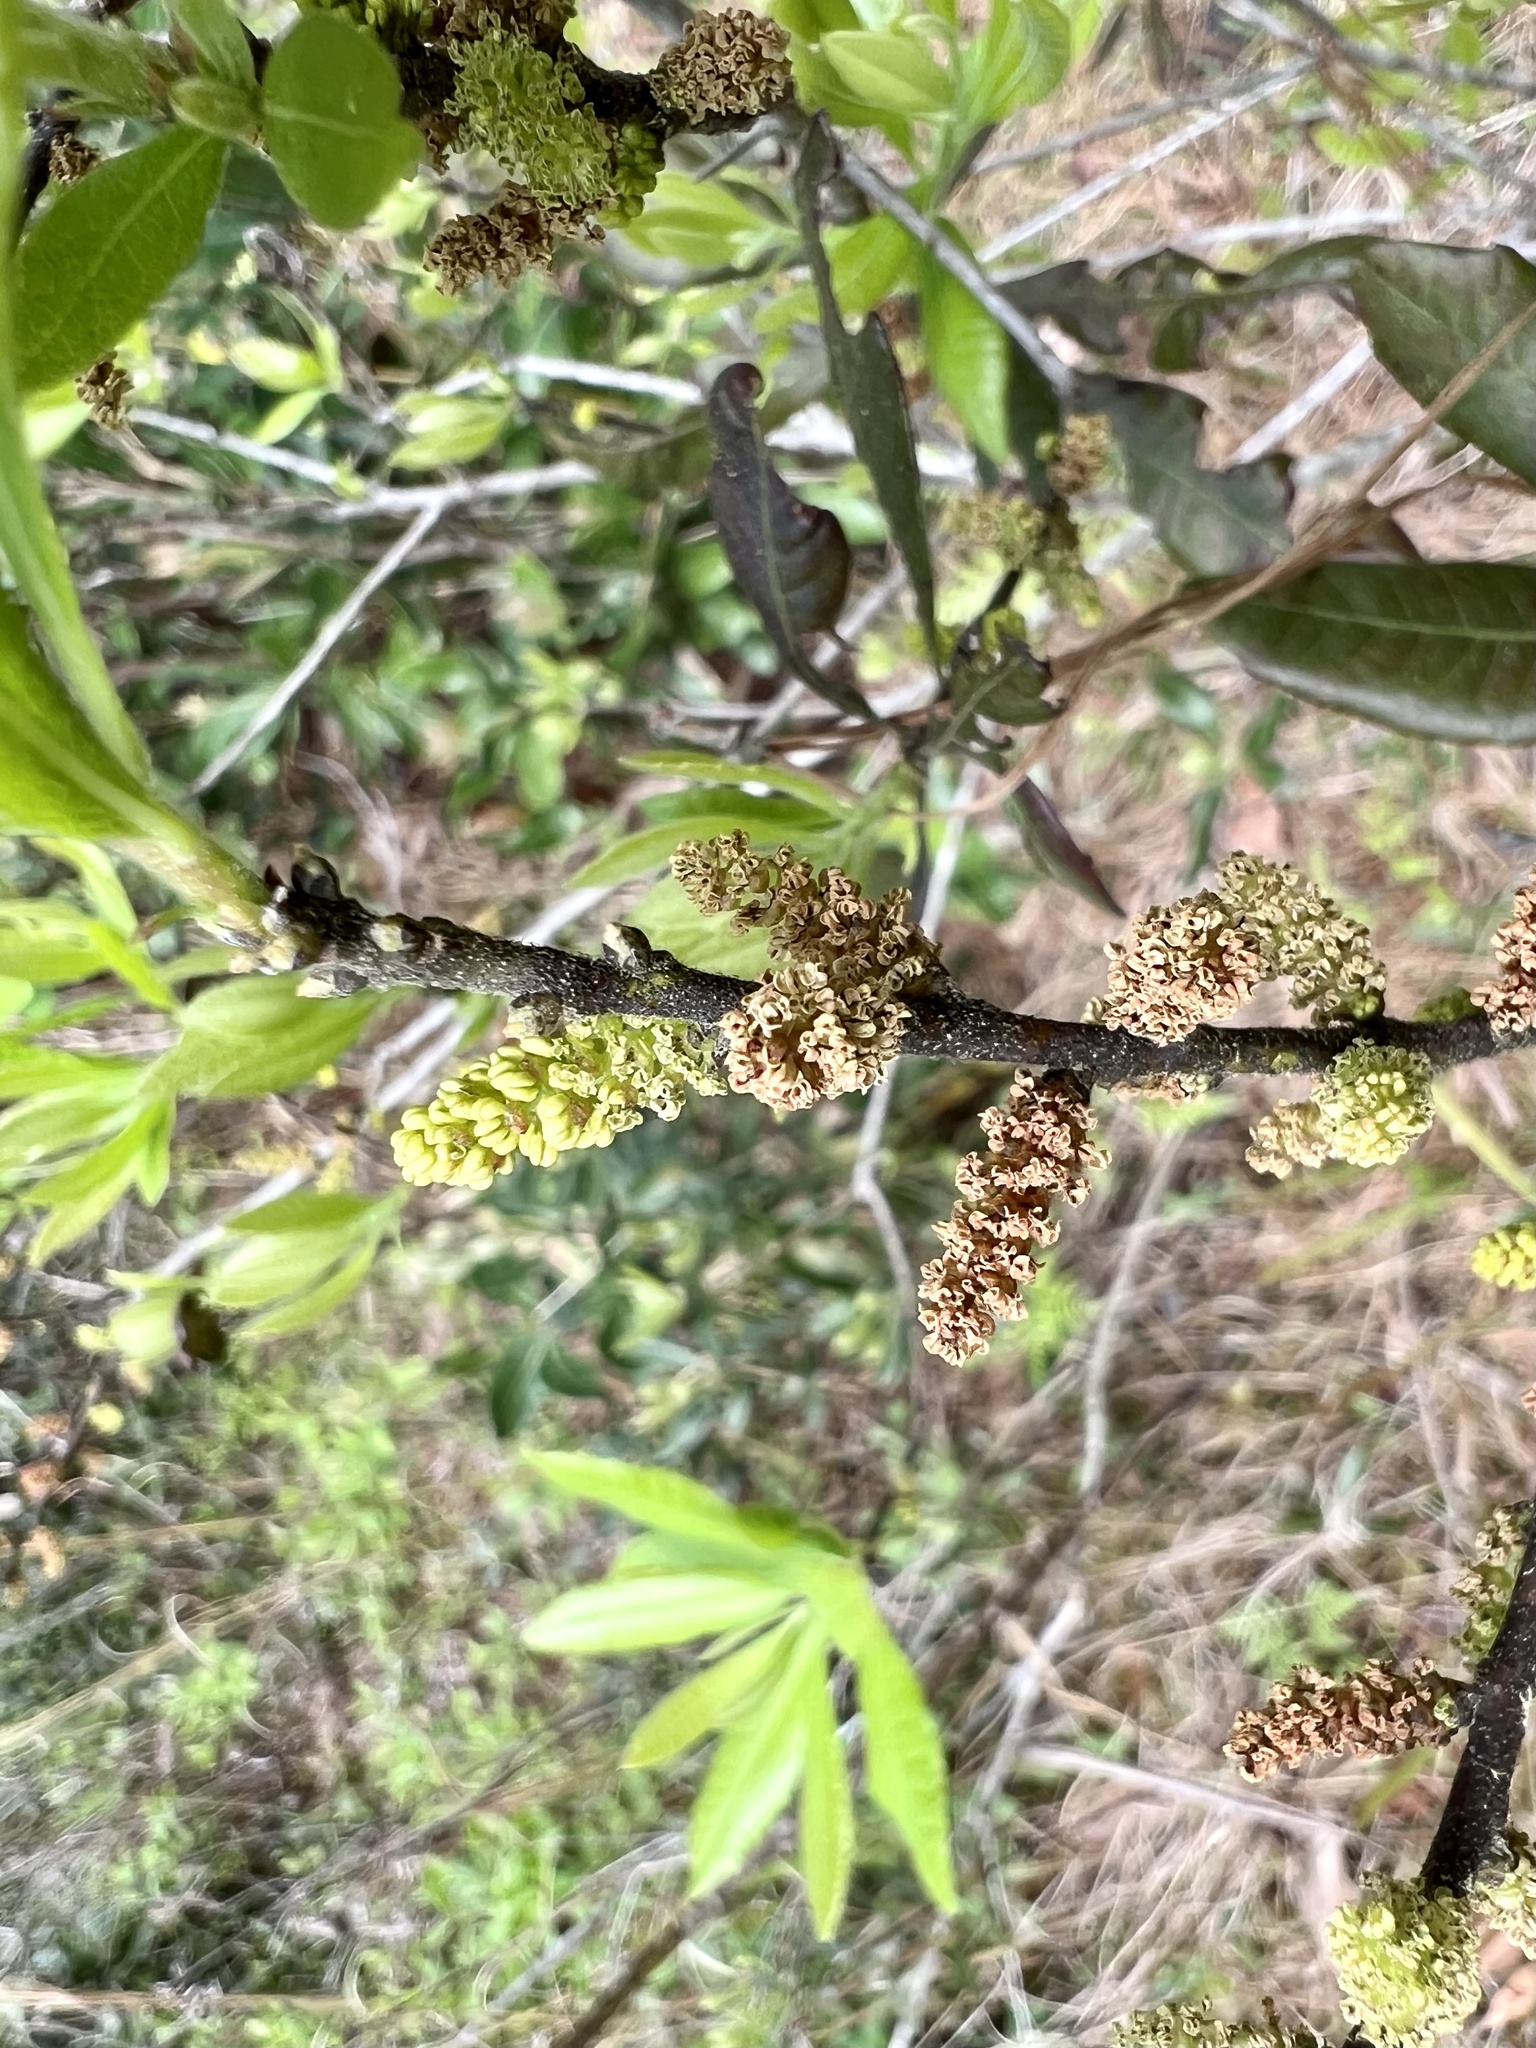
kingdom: Plantae
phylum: Tracheophyta
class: Magnoliopsida
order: Fagales
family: Myricaceae
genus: Morella
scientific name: Morella caroliniensis
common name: Evergreen bayberry
